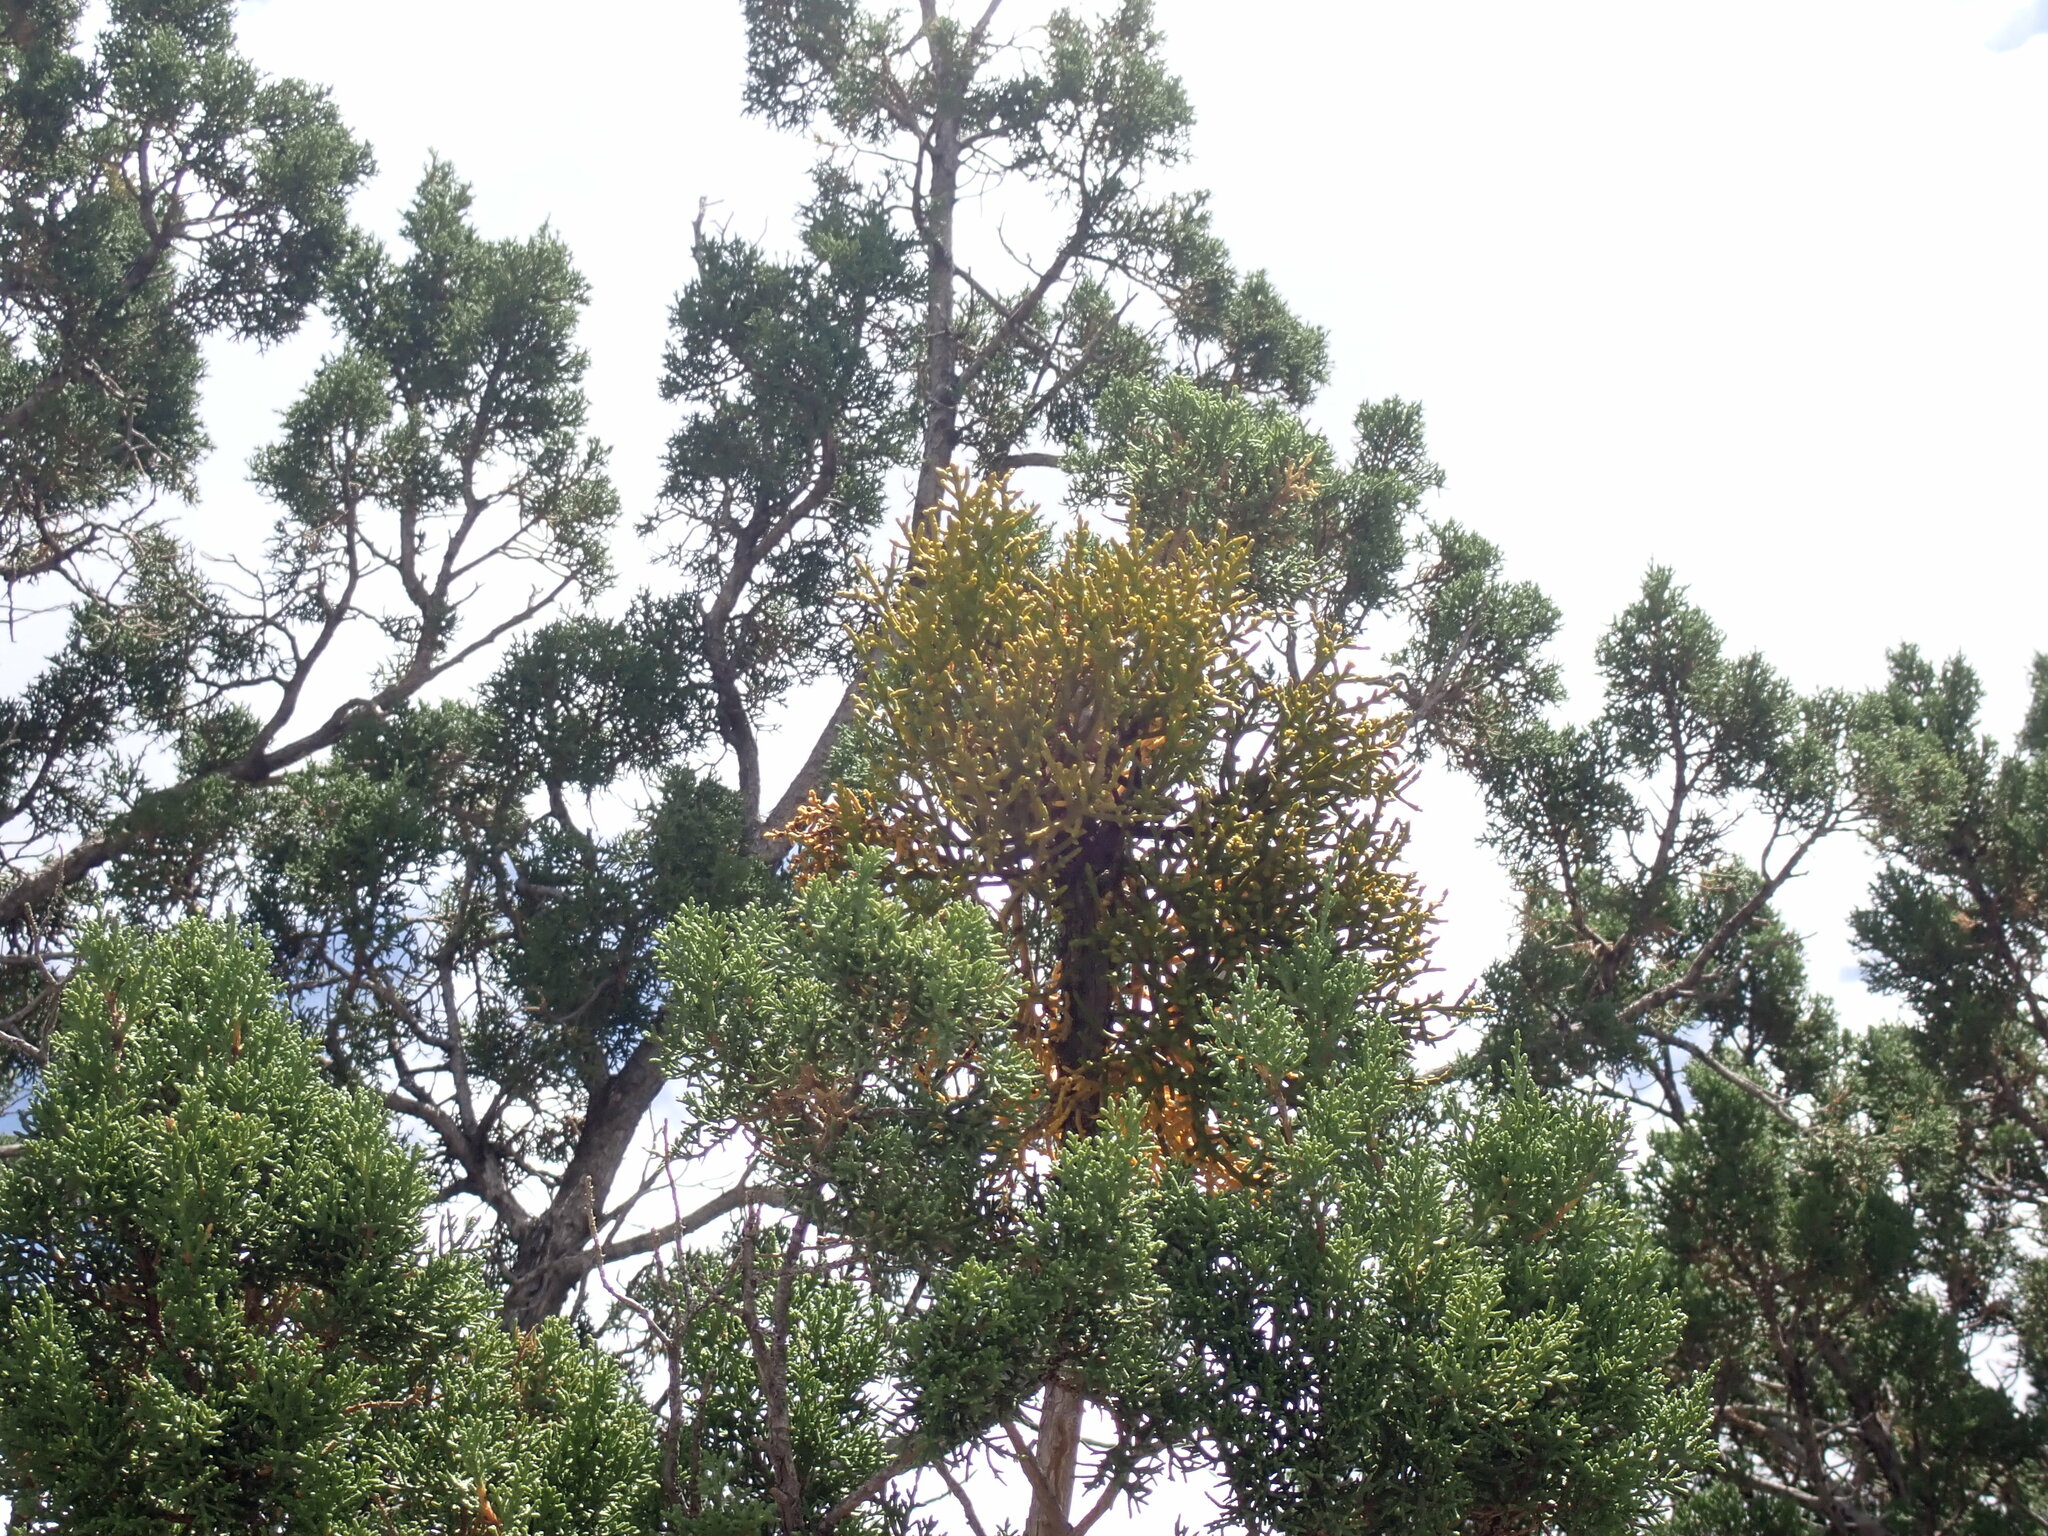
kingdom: Plantae
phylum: Tracheophyta
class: Magnoliopsida
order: Santalales
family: Viscaceae
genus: Phoradendron
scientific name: Phoradendron juniperinum
